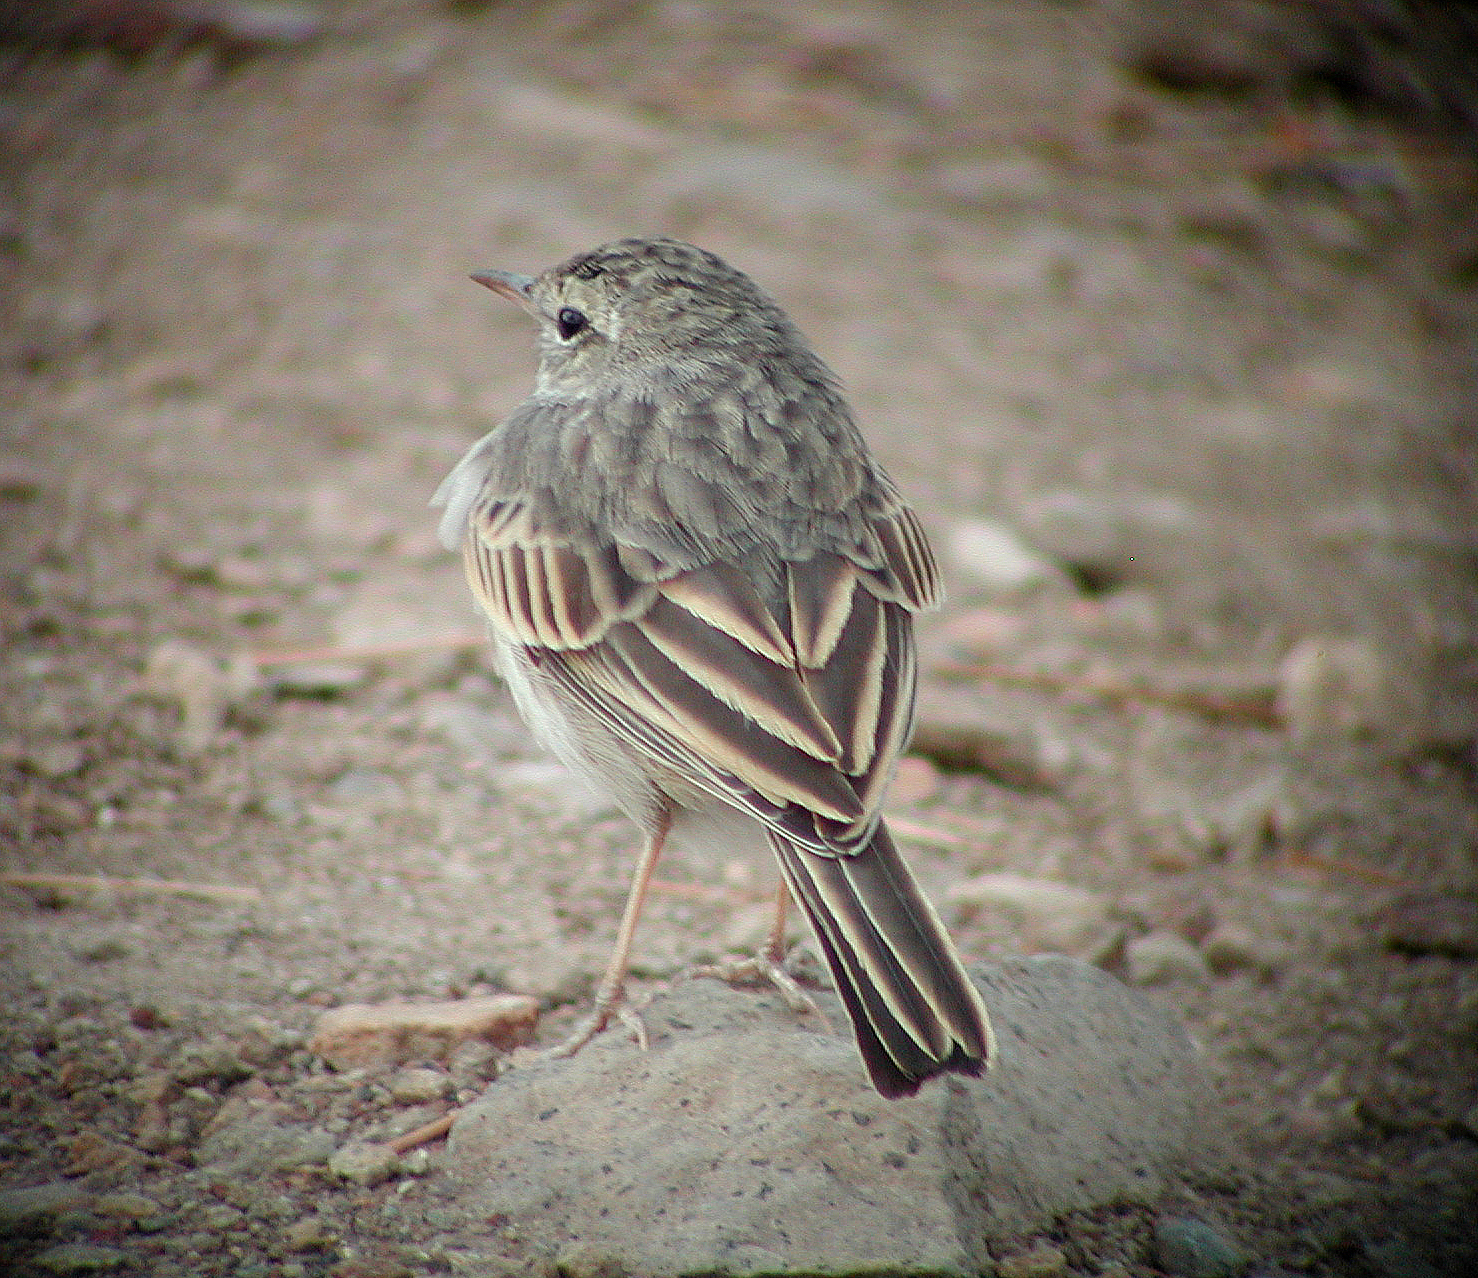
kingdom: Animalia
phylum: Chordata
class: Aves
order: Passeriformes
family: Motacillidae
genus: Anthus
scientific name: Anthus berthelotii
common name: Berthelot's pipit
